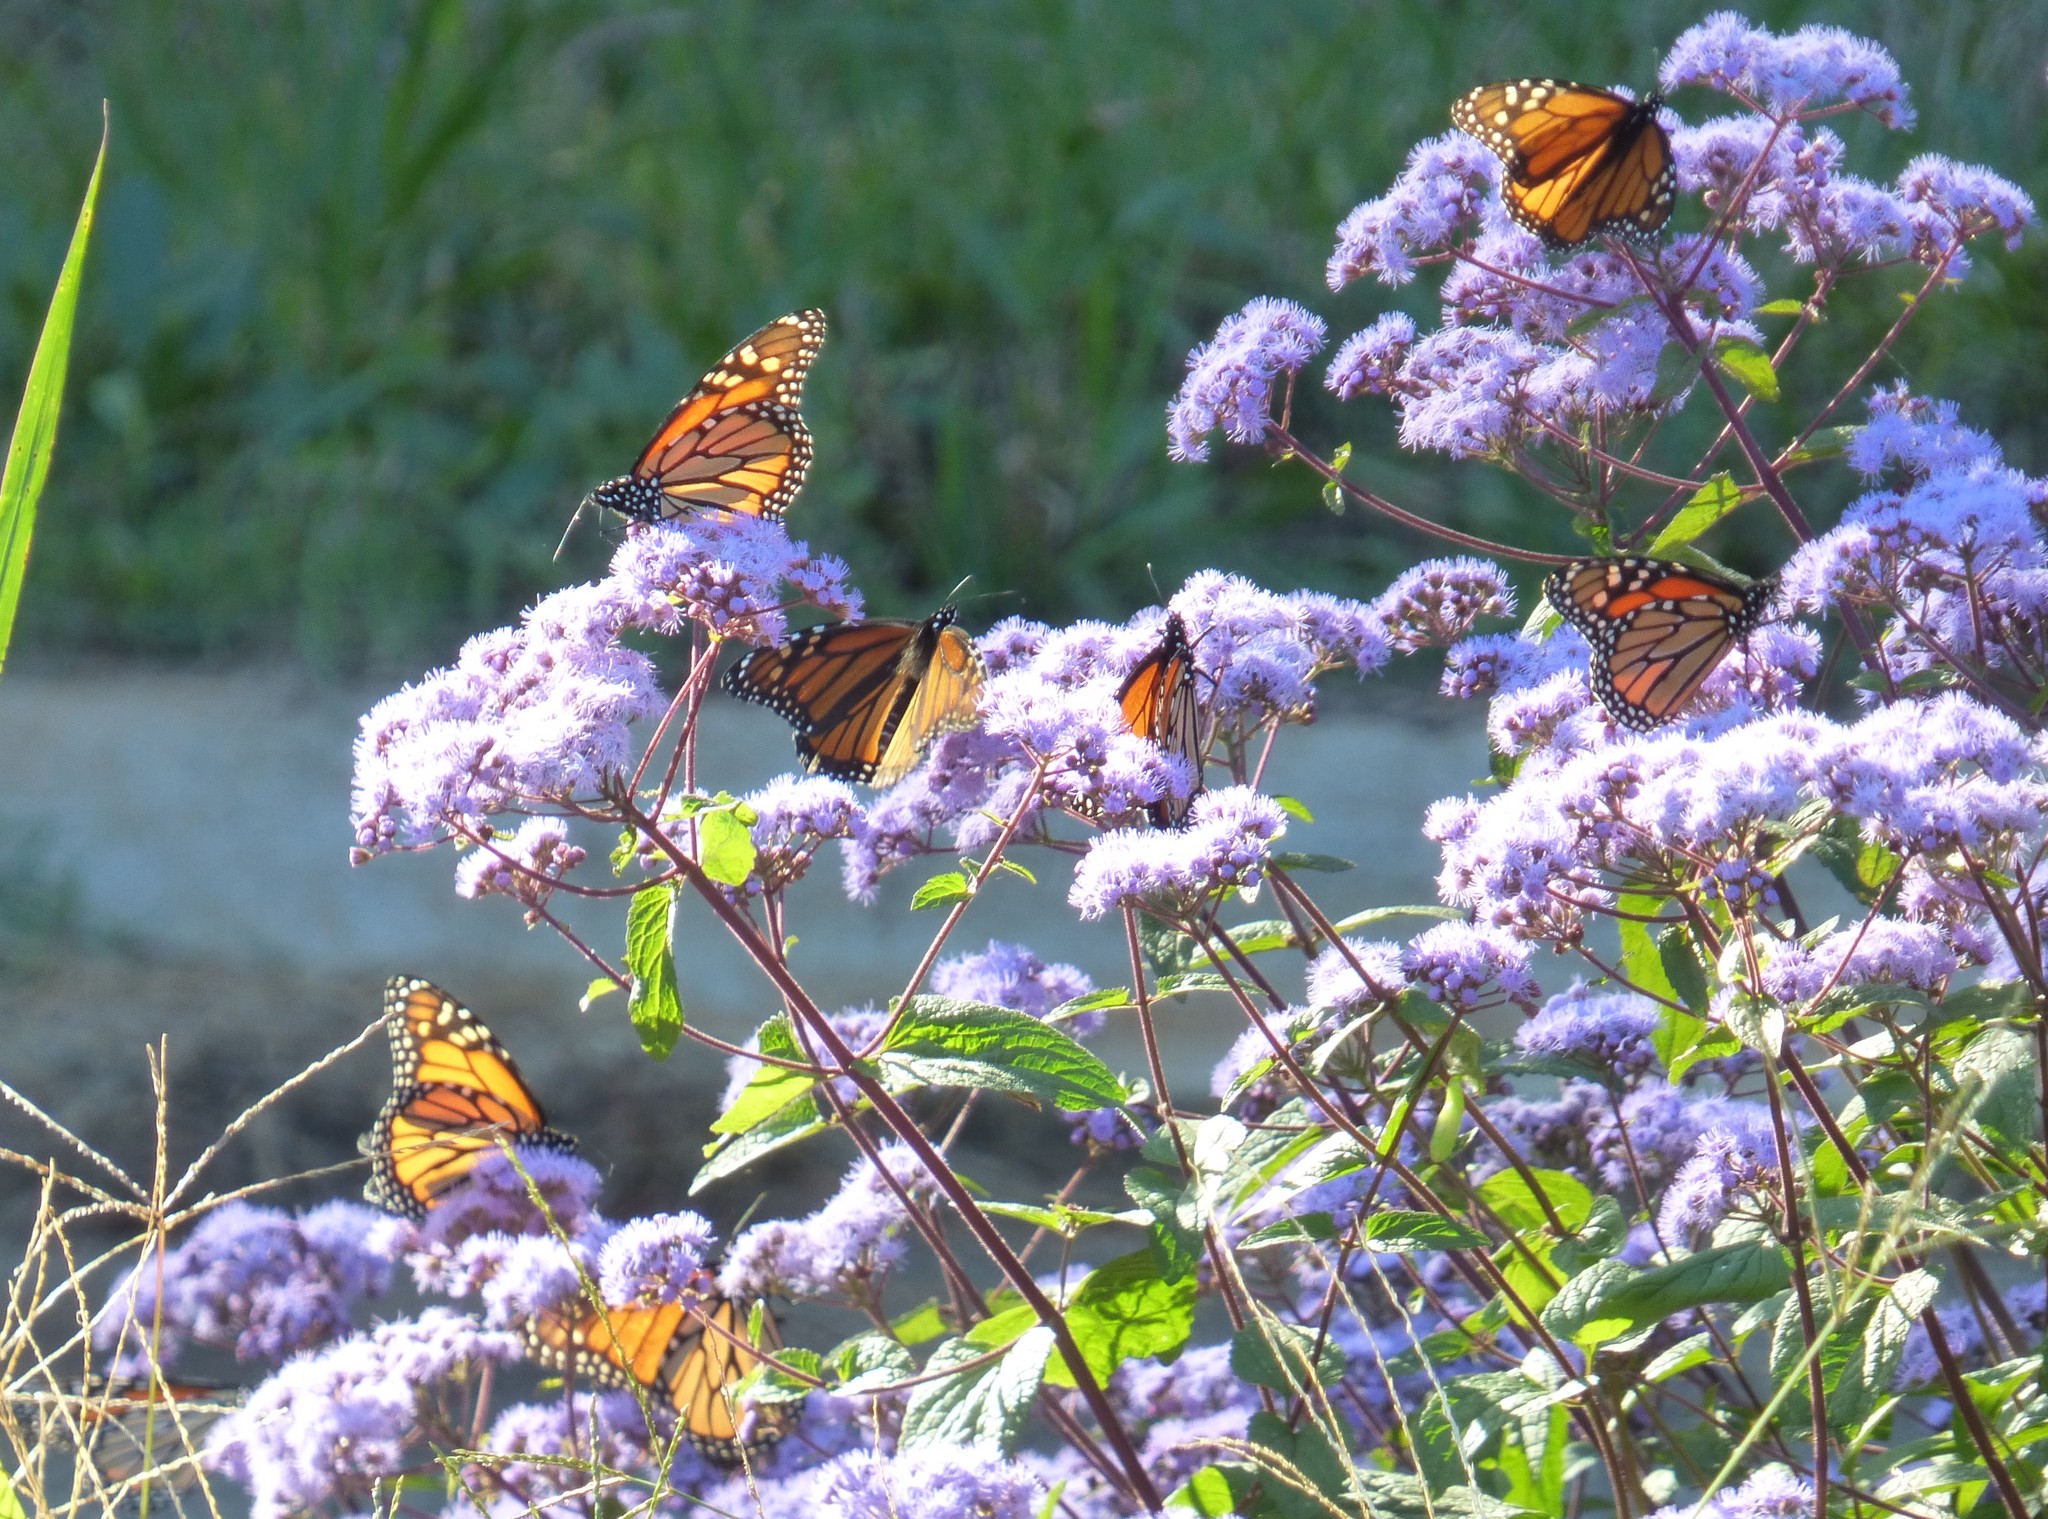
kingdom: Animalia
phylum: Arthropoda
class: Insecta
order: Lepidoptera
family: Nymphalidae
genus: Danaus
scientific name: Danaus plexippus
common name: Monarch
